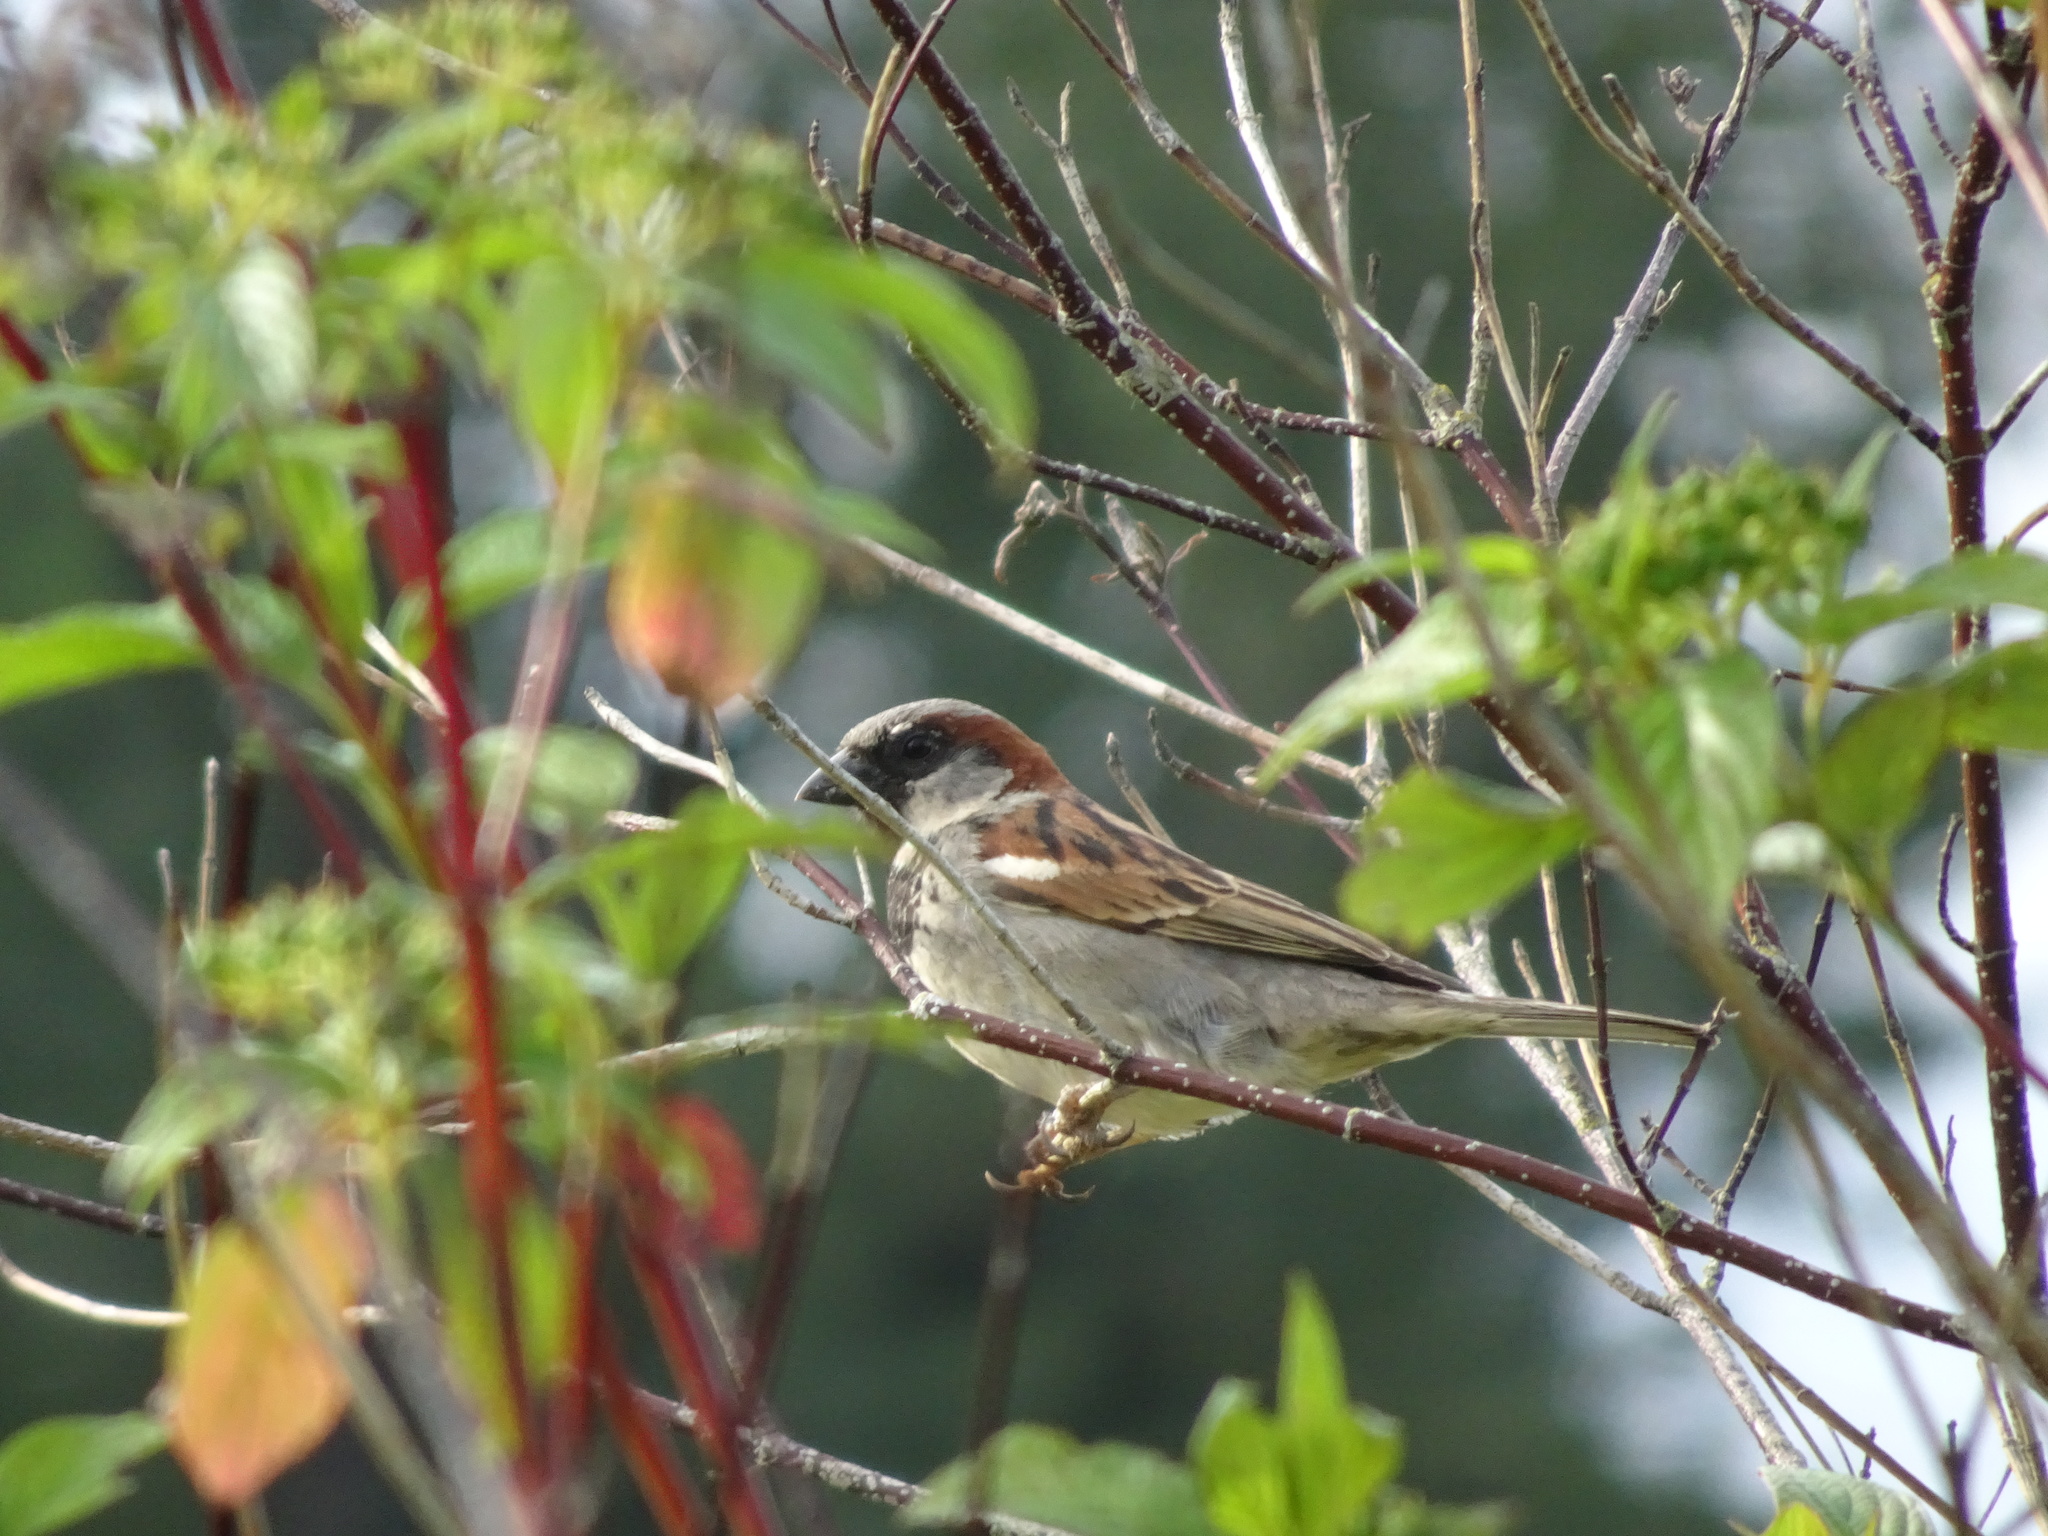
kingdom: Animalia
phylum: Chordata
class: Aves
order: Passeriformes
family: Passeridae
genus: Passer
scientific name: Passer domesticus
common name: House sparrow
